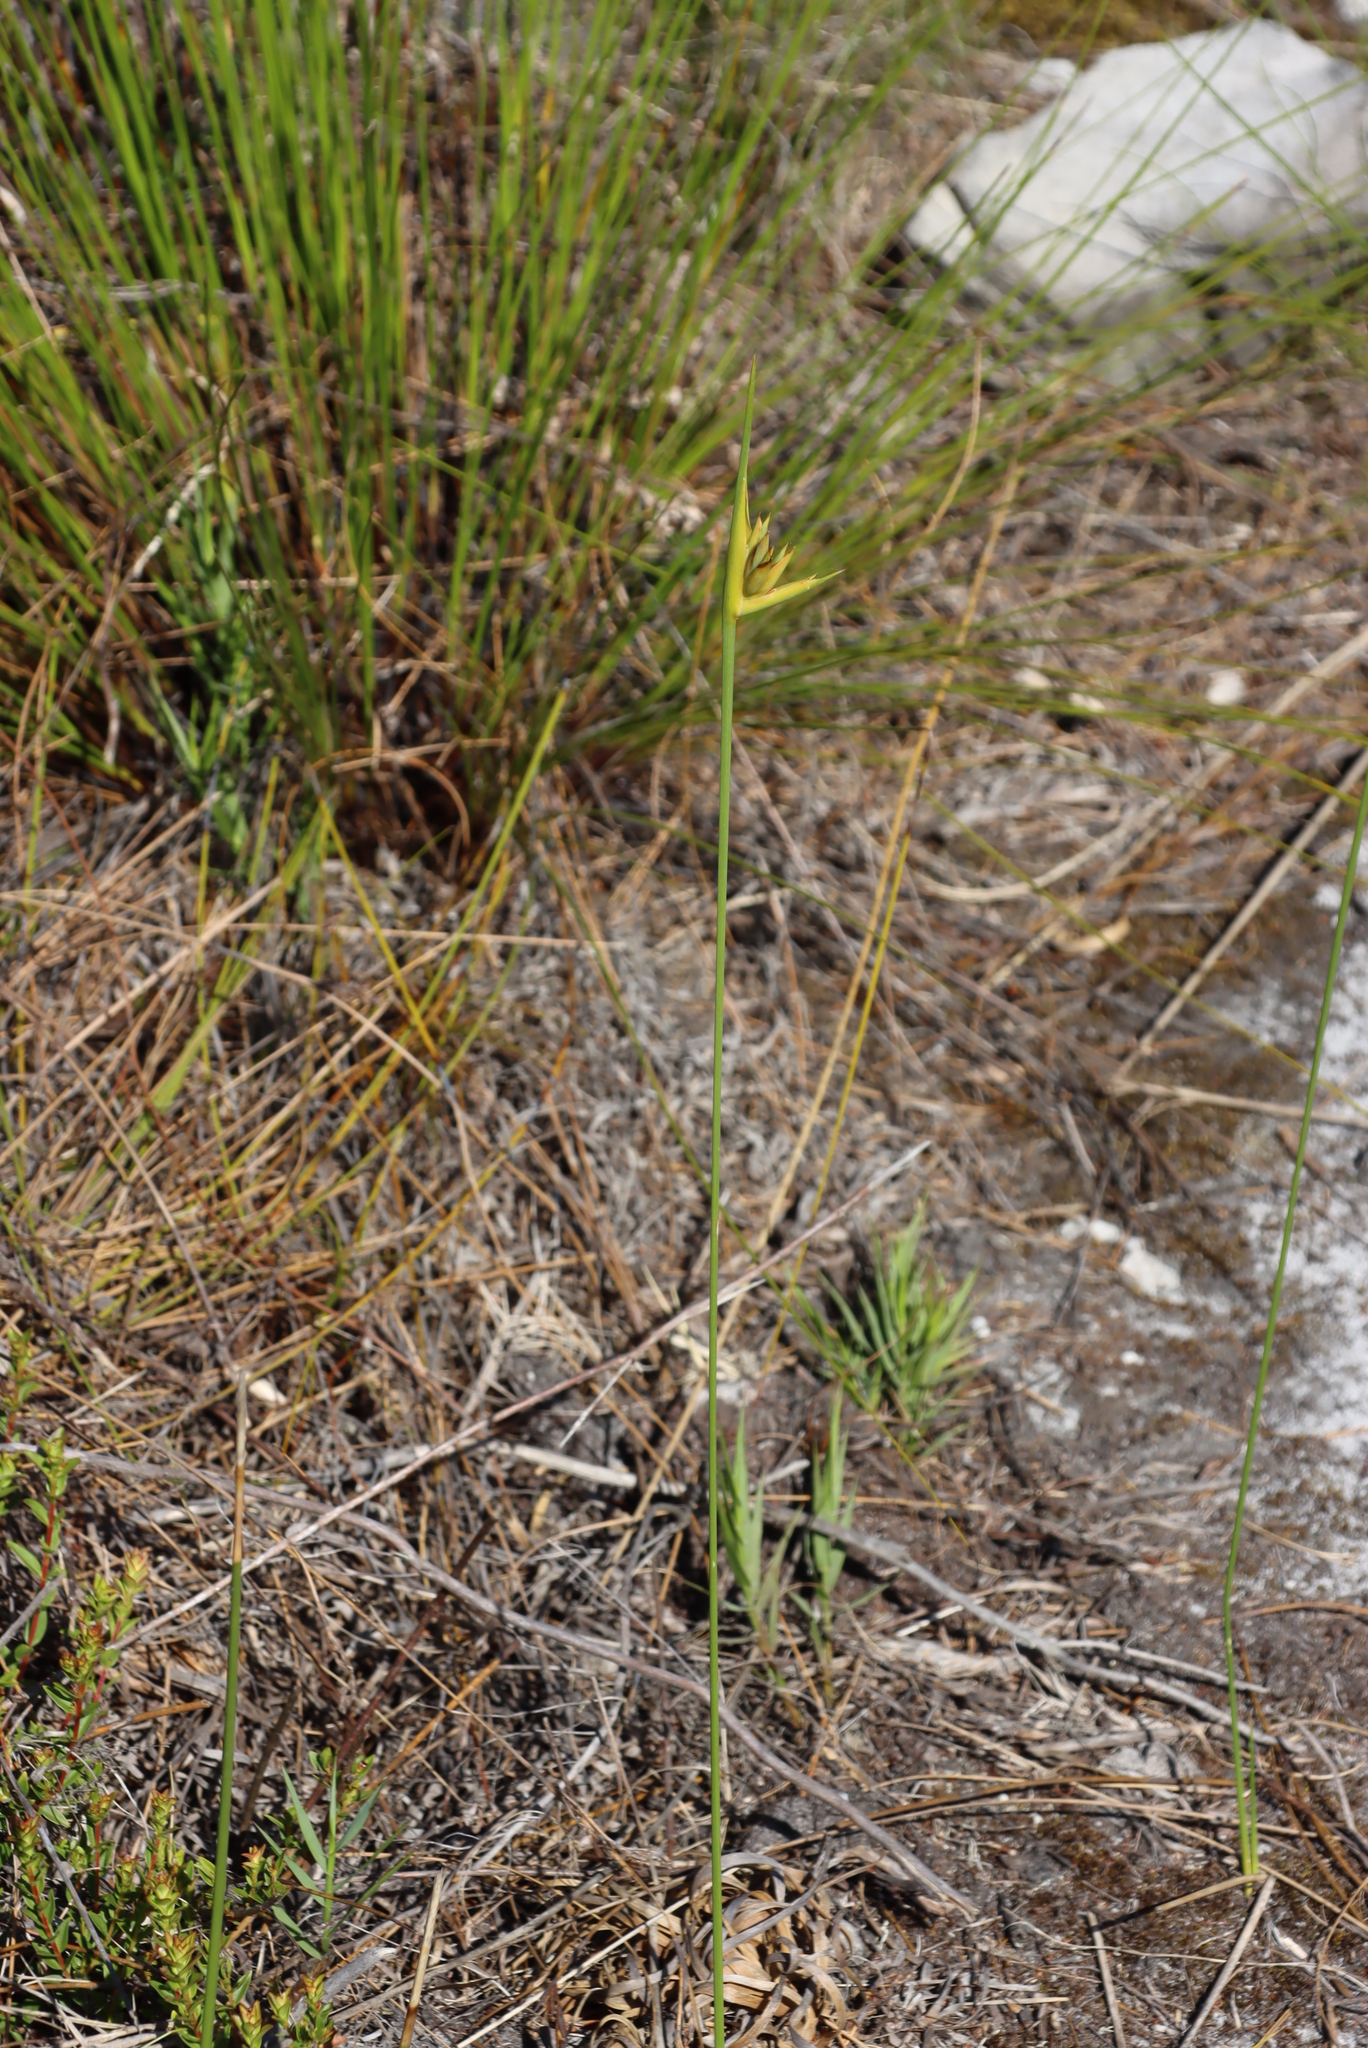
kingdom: Plantae
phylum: Tracheophyta
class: Liliopsida
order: Asparagales
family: Iridaceae
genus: Bobartia
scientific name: Bobartia aphylla
